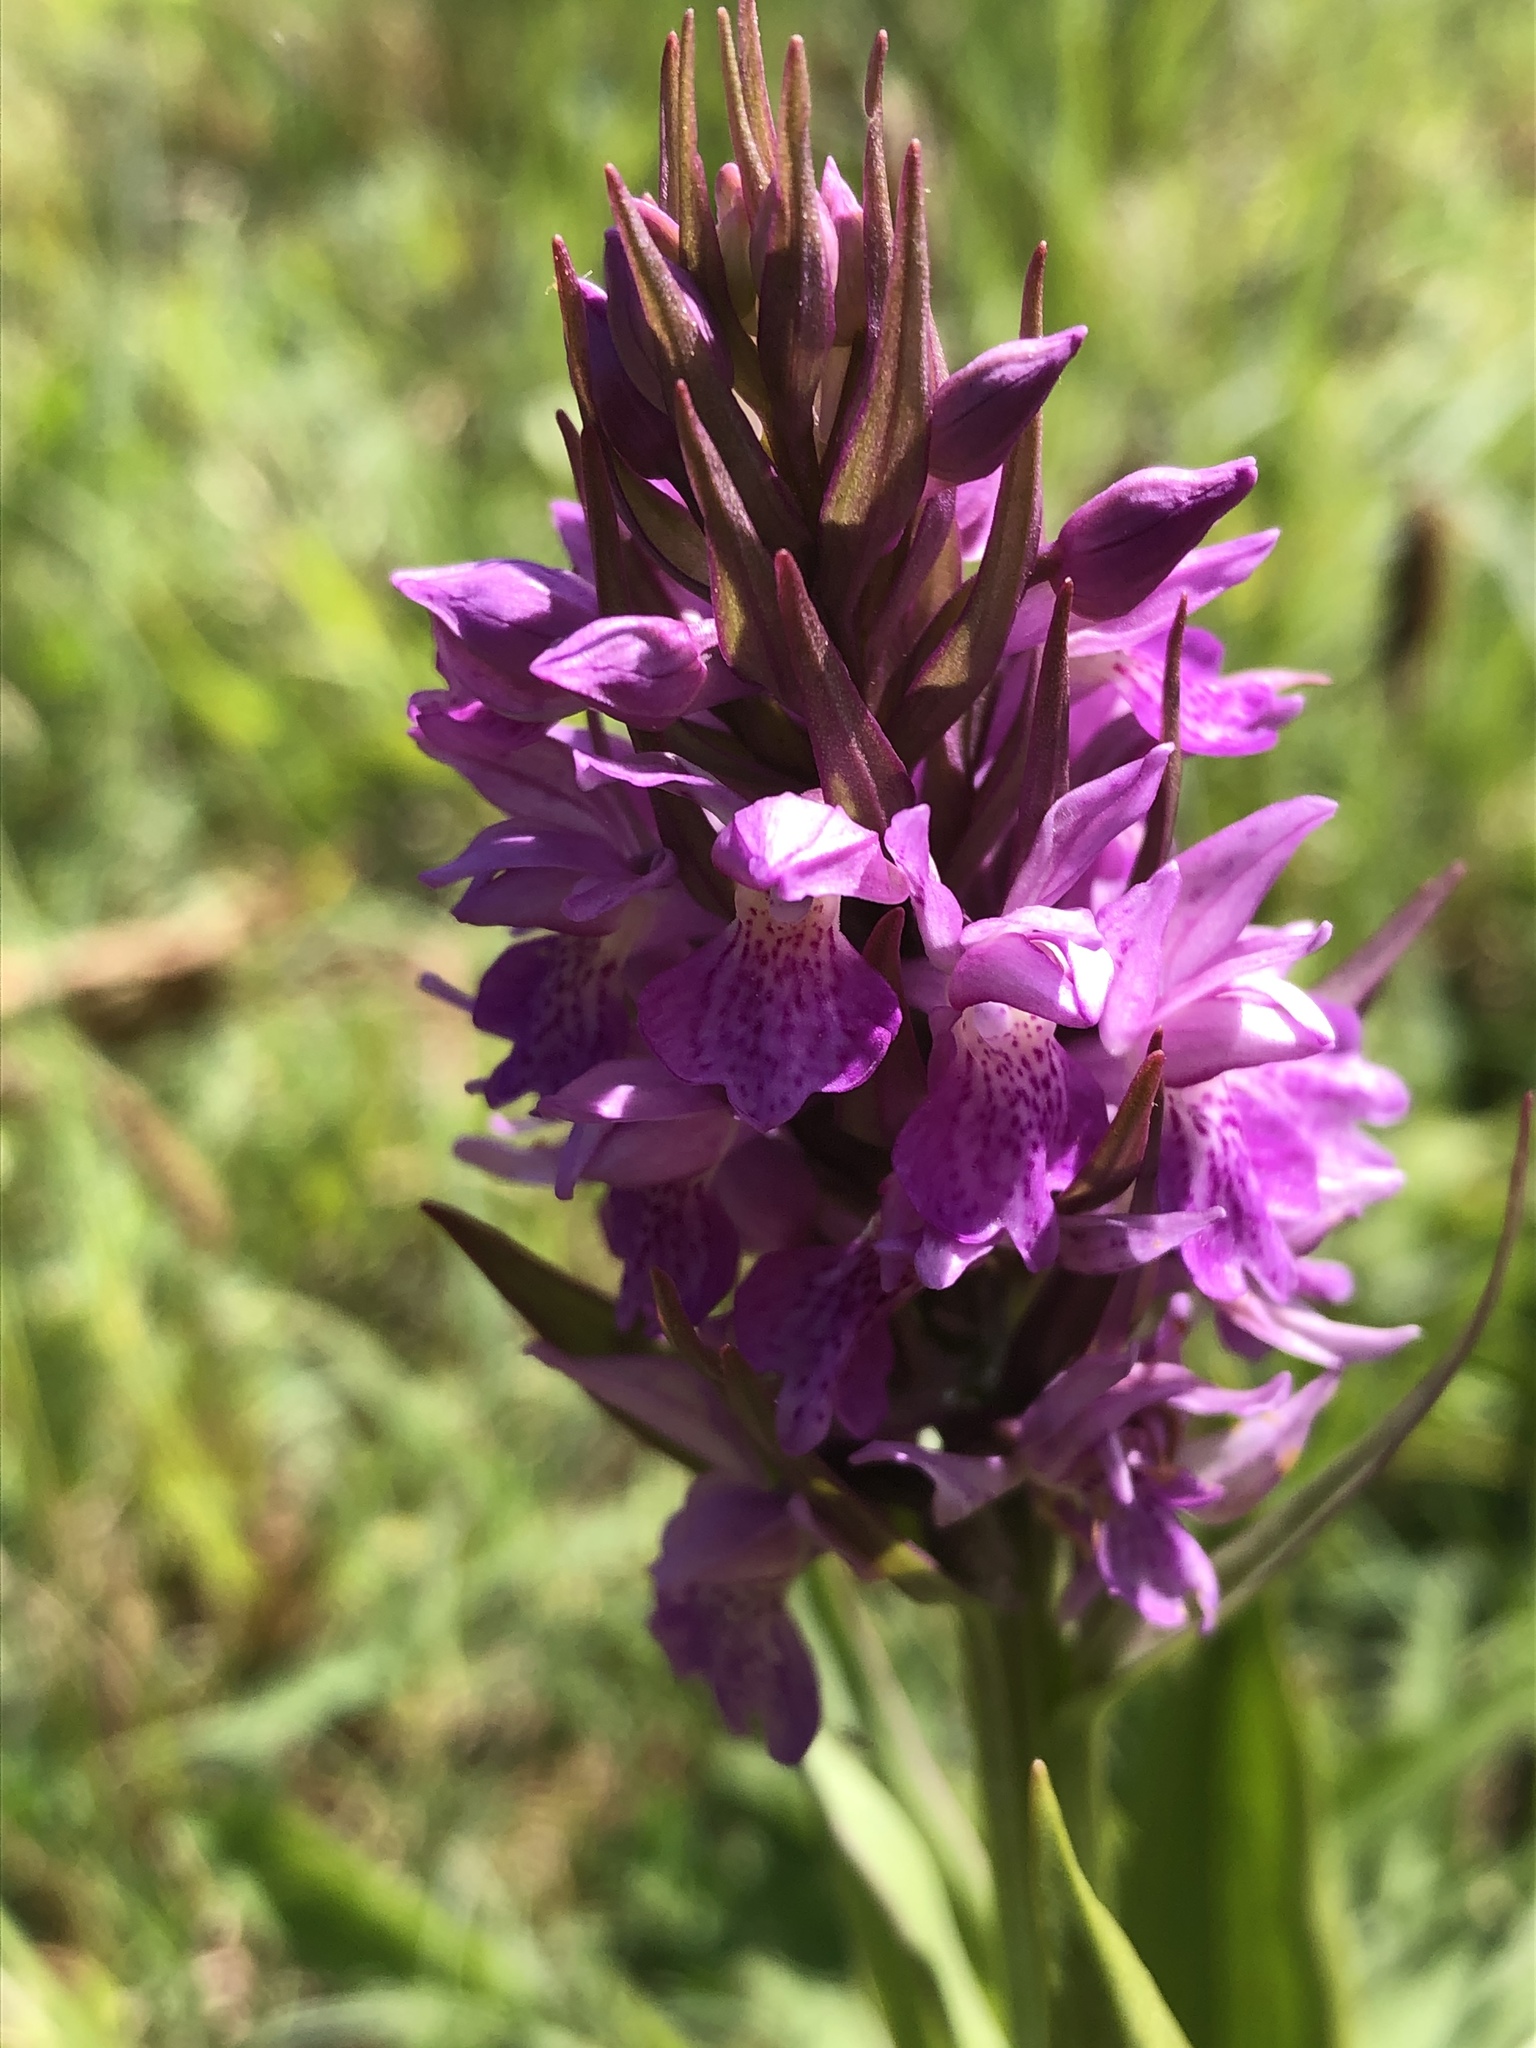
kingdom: Plantae
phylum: Tracheophyta
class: Liliopsida
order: Asparagales
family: Orchidaceae
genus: Dactylorhiza
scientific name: Dactylorhiza majalis
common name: Marsh orchid
